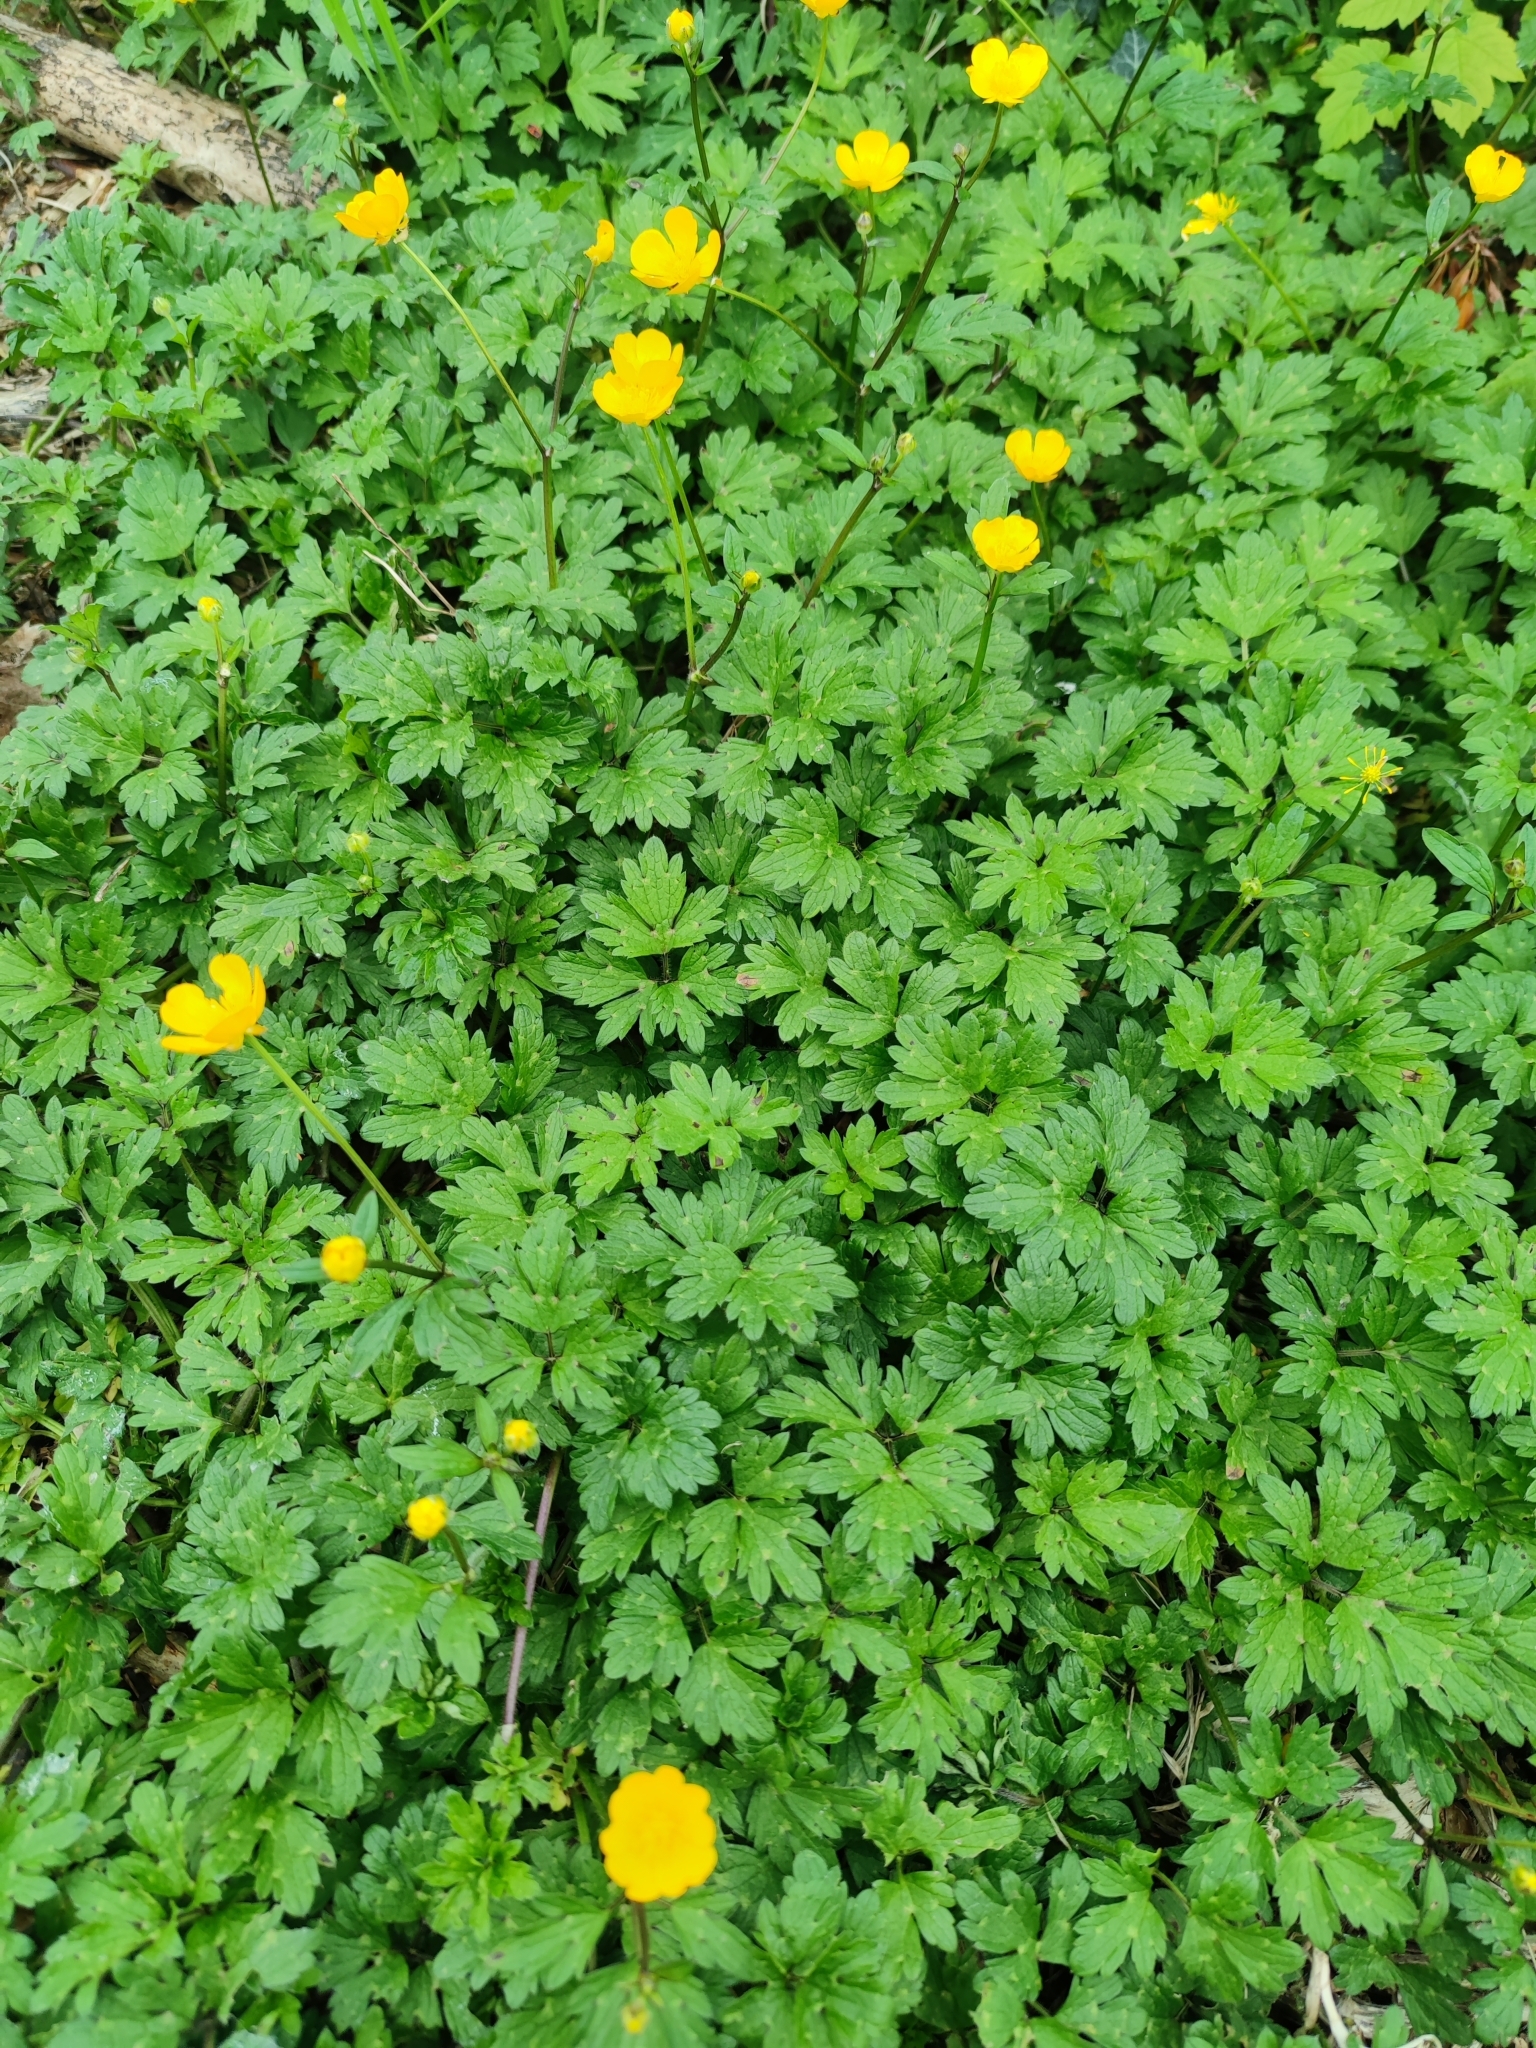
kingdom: Plantae
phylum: Tracheophyta
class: Magnoliopsida
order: Ranunculales
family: Ranunculaceae
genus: Ranunculus
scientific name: Ranunculus repens
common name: Creeping buttercup
